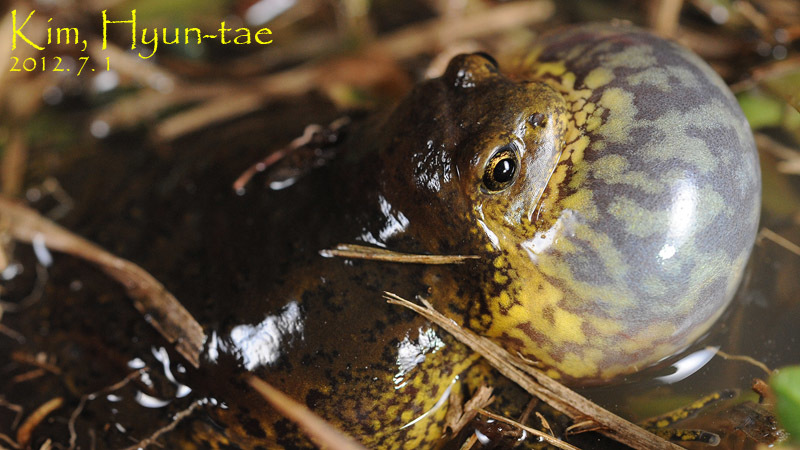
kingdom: Animalia
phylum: Chordata
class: Amphibia
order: Anura
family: Microhylidae
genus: Kaloula
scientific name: Kaloula borealis
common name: Boreal digging frog
